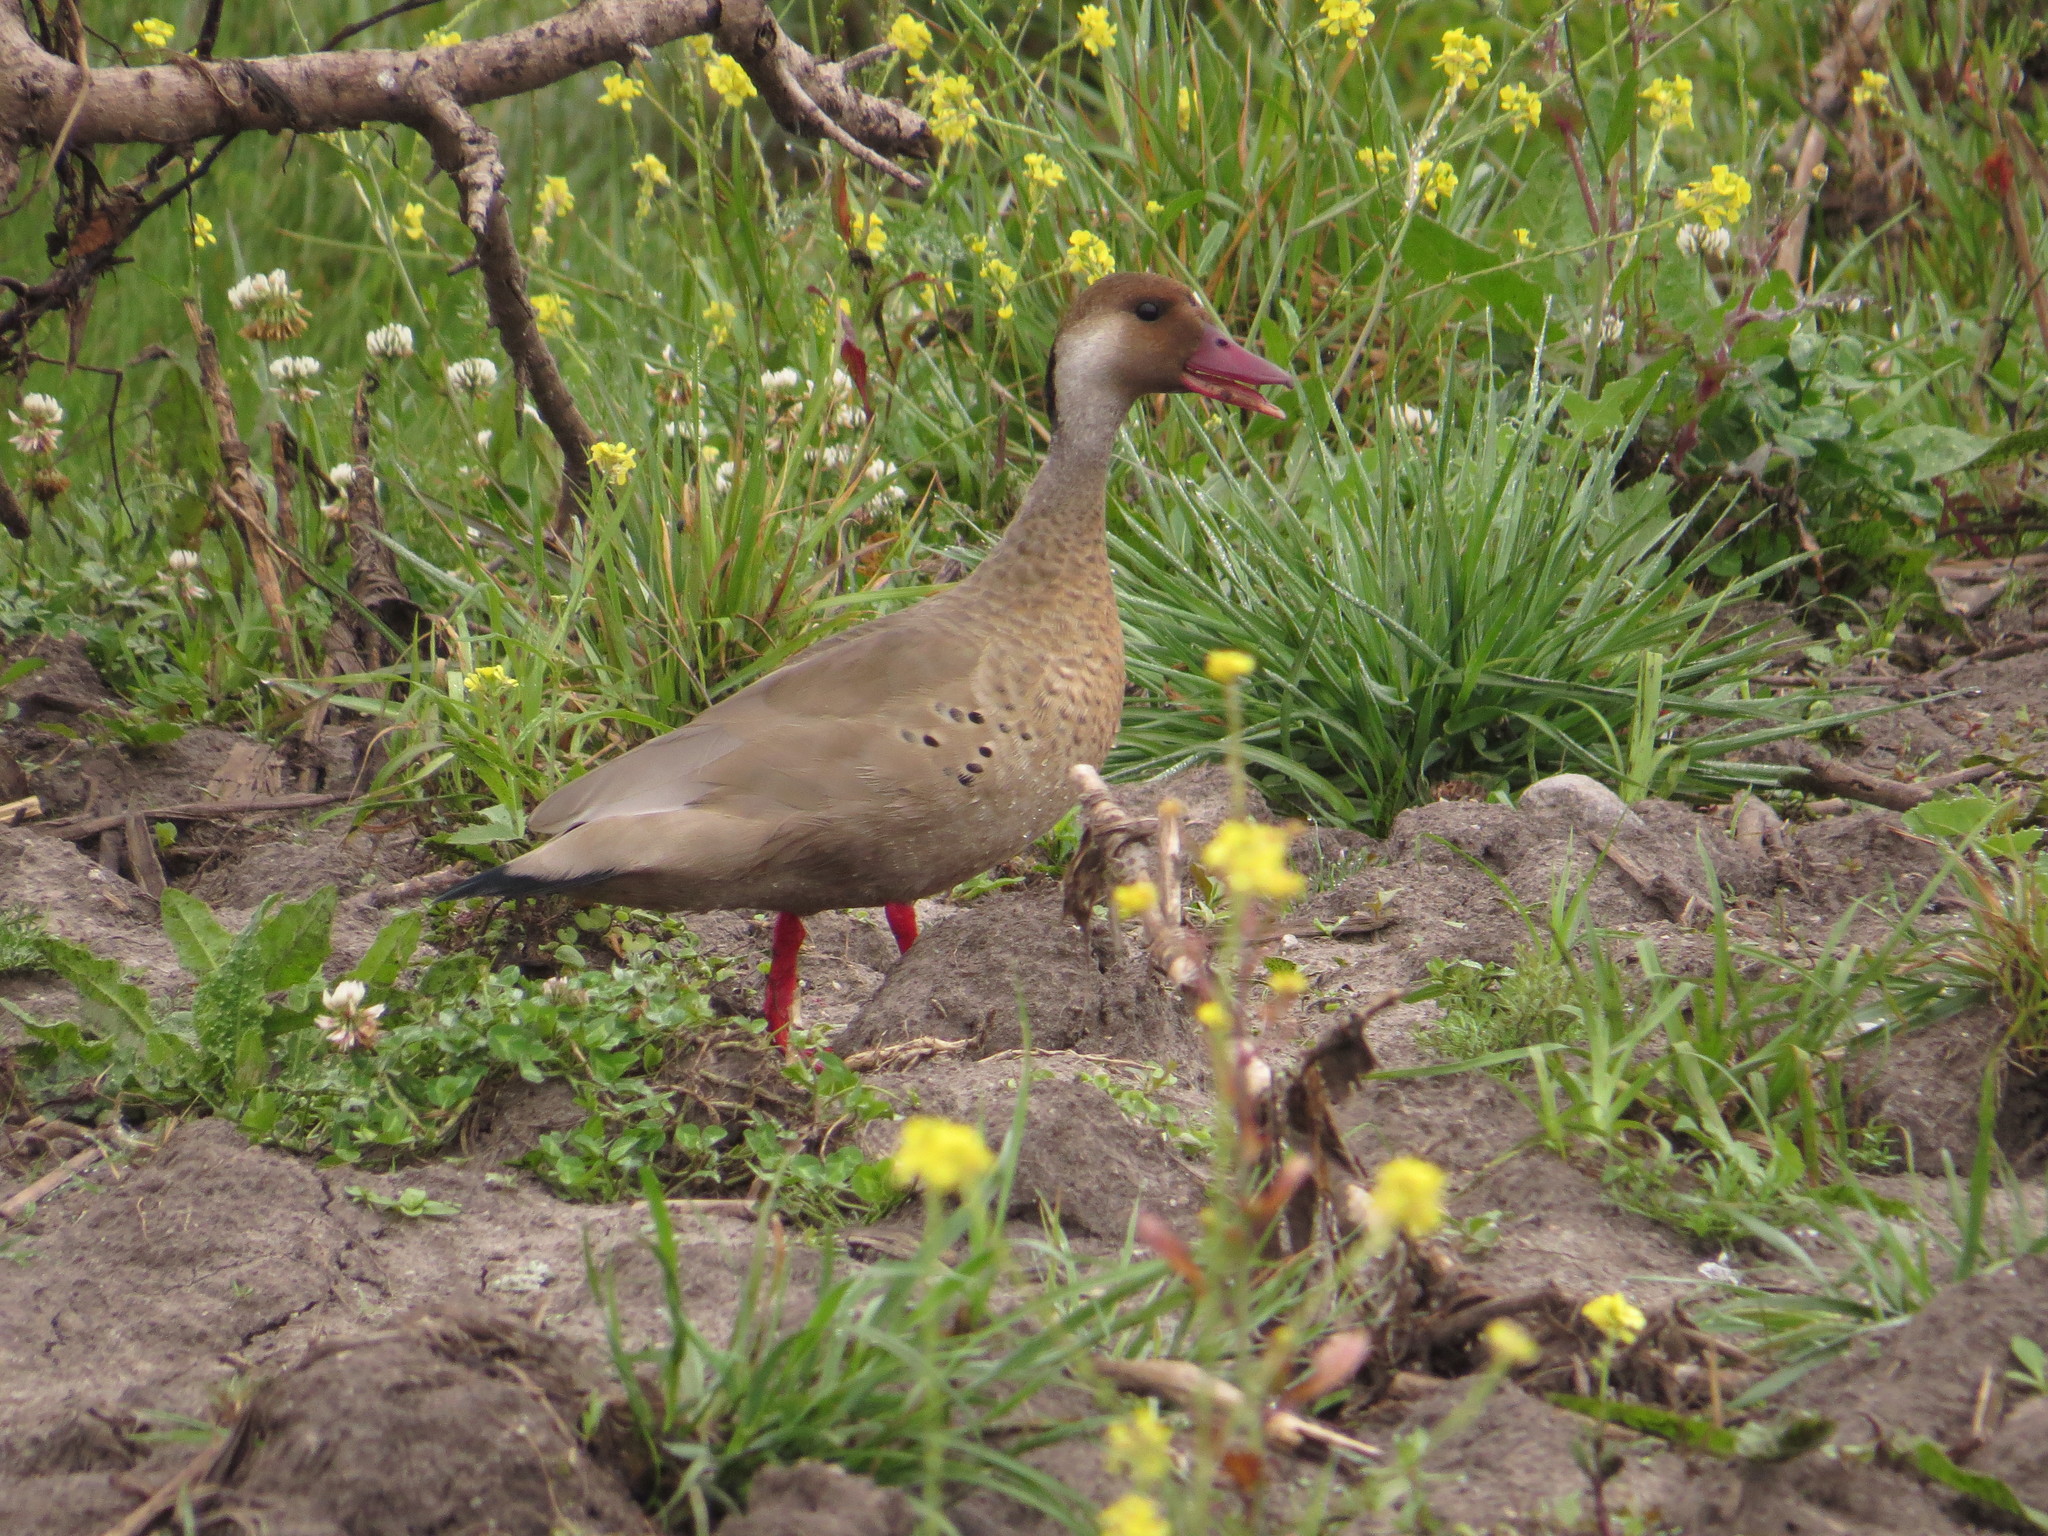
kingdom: Animalia
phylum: Chordata
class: Aves
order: Anseriformes
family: Anatidae
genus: Amazonetta
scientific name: Amazonetta brasiliensis
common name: Brazilian teal
